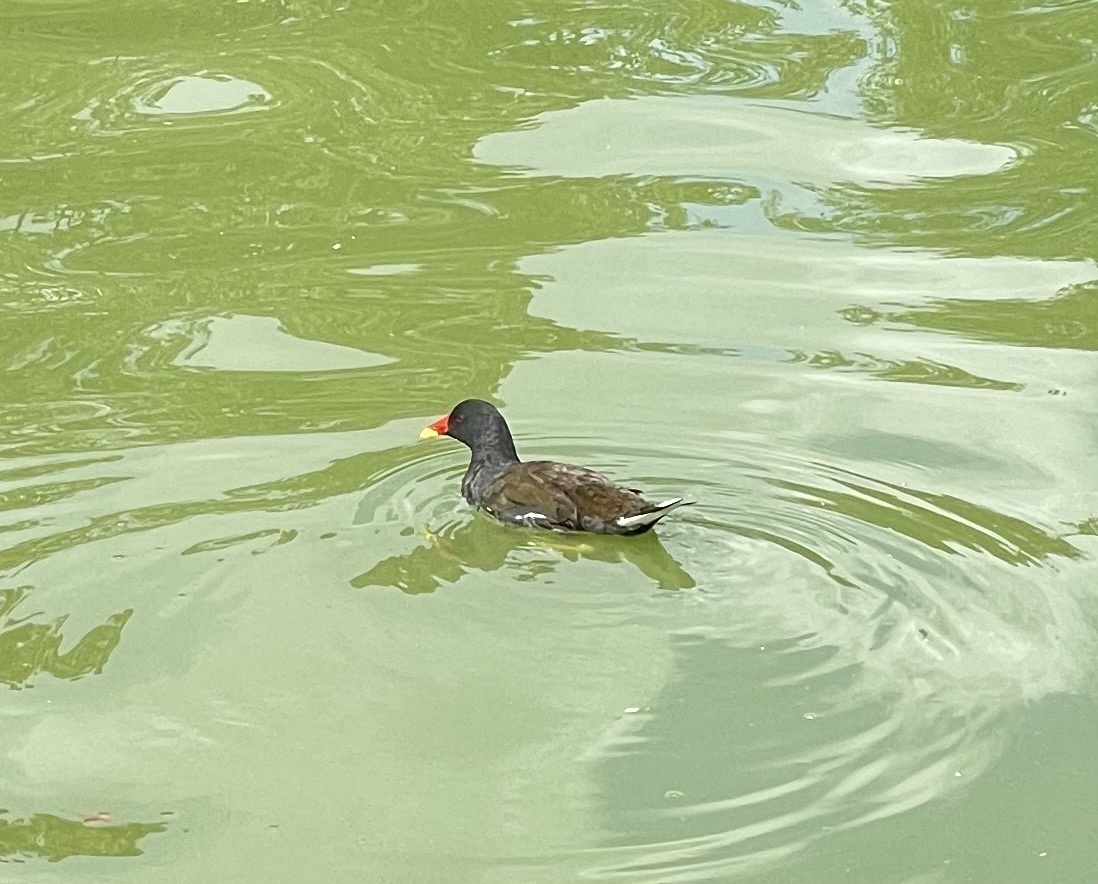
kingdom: Animalia
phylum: Chordata
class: Aves
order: Gruiformes
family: Rallidae
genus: Gallinula
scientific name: Gallinula chloropus
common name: Common moorhen
